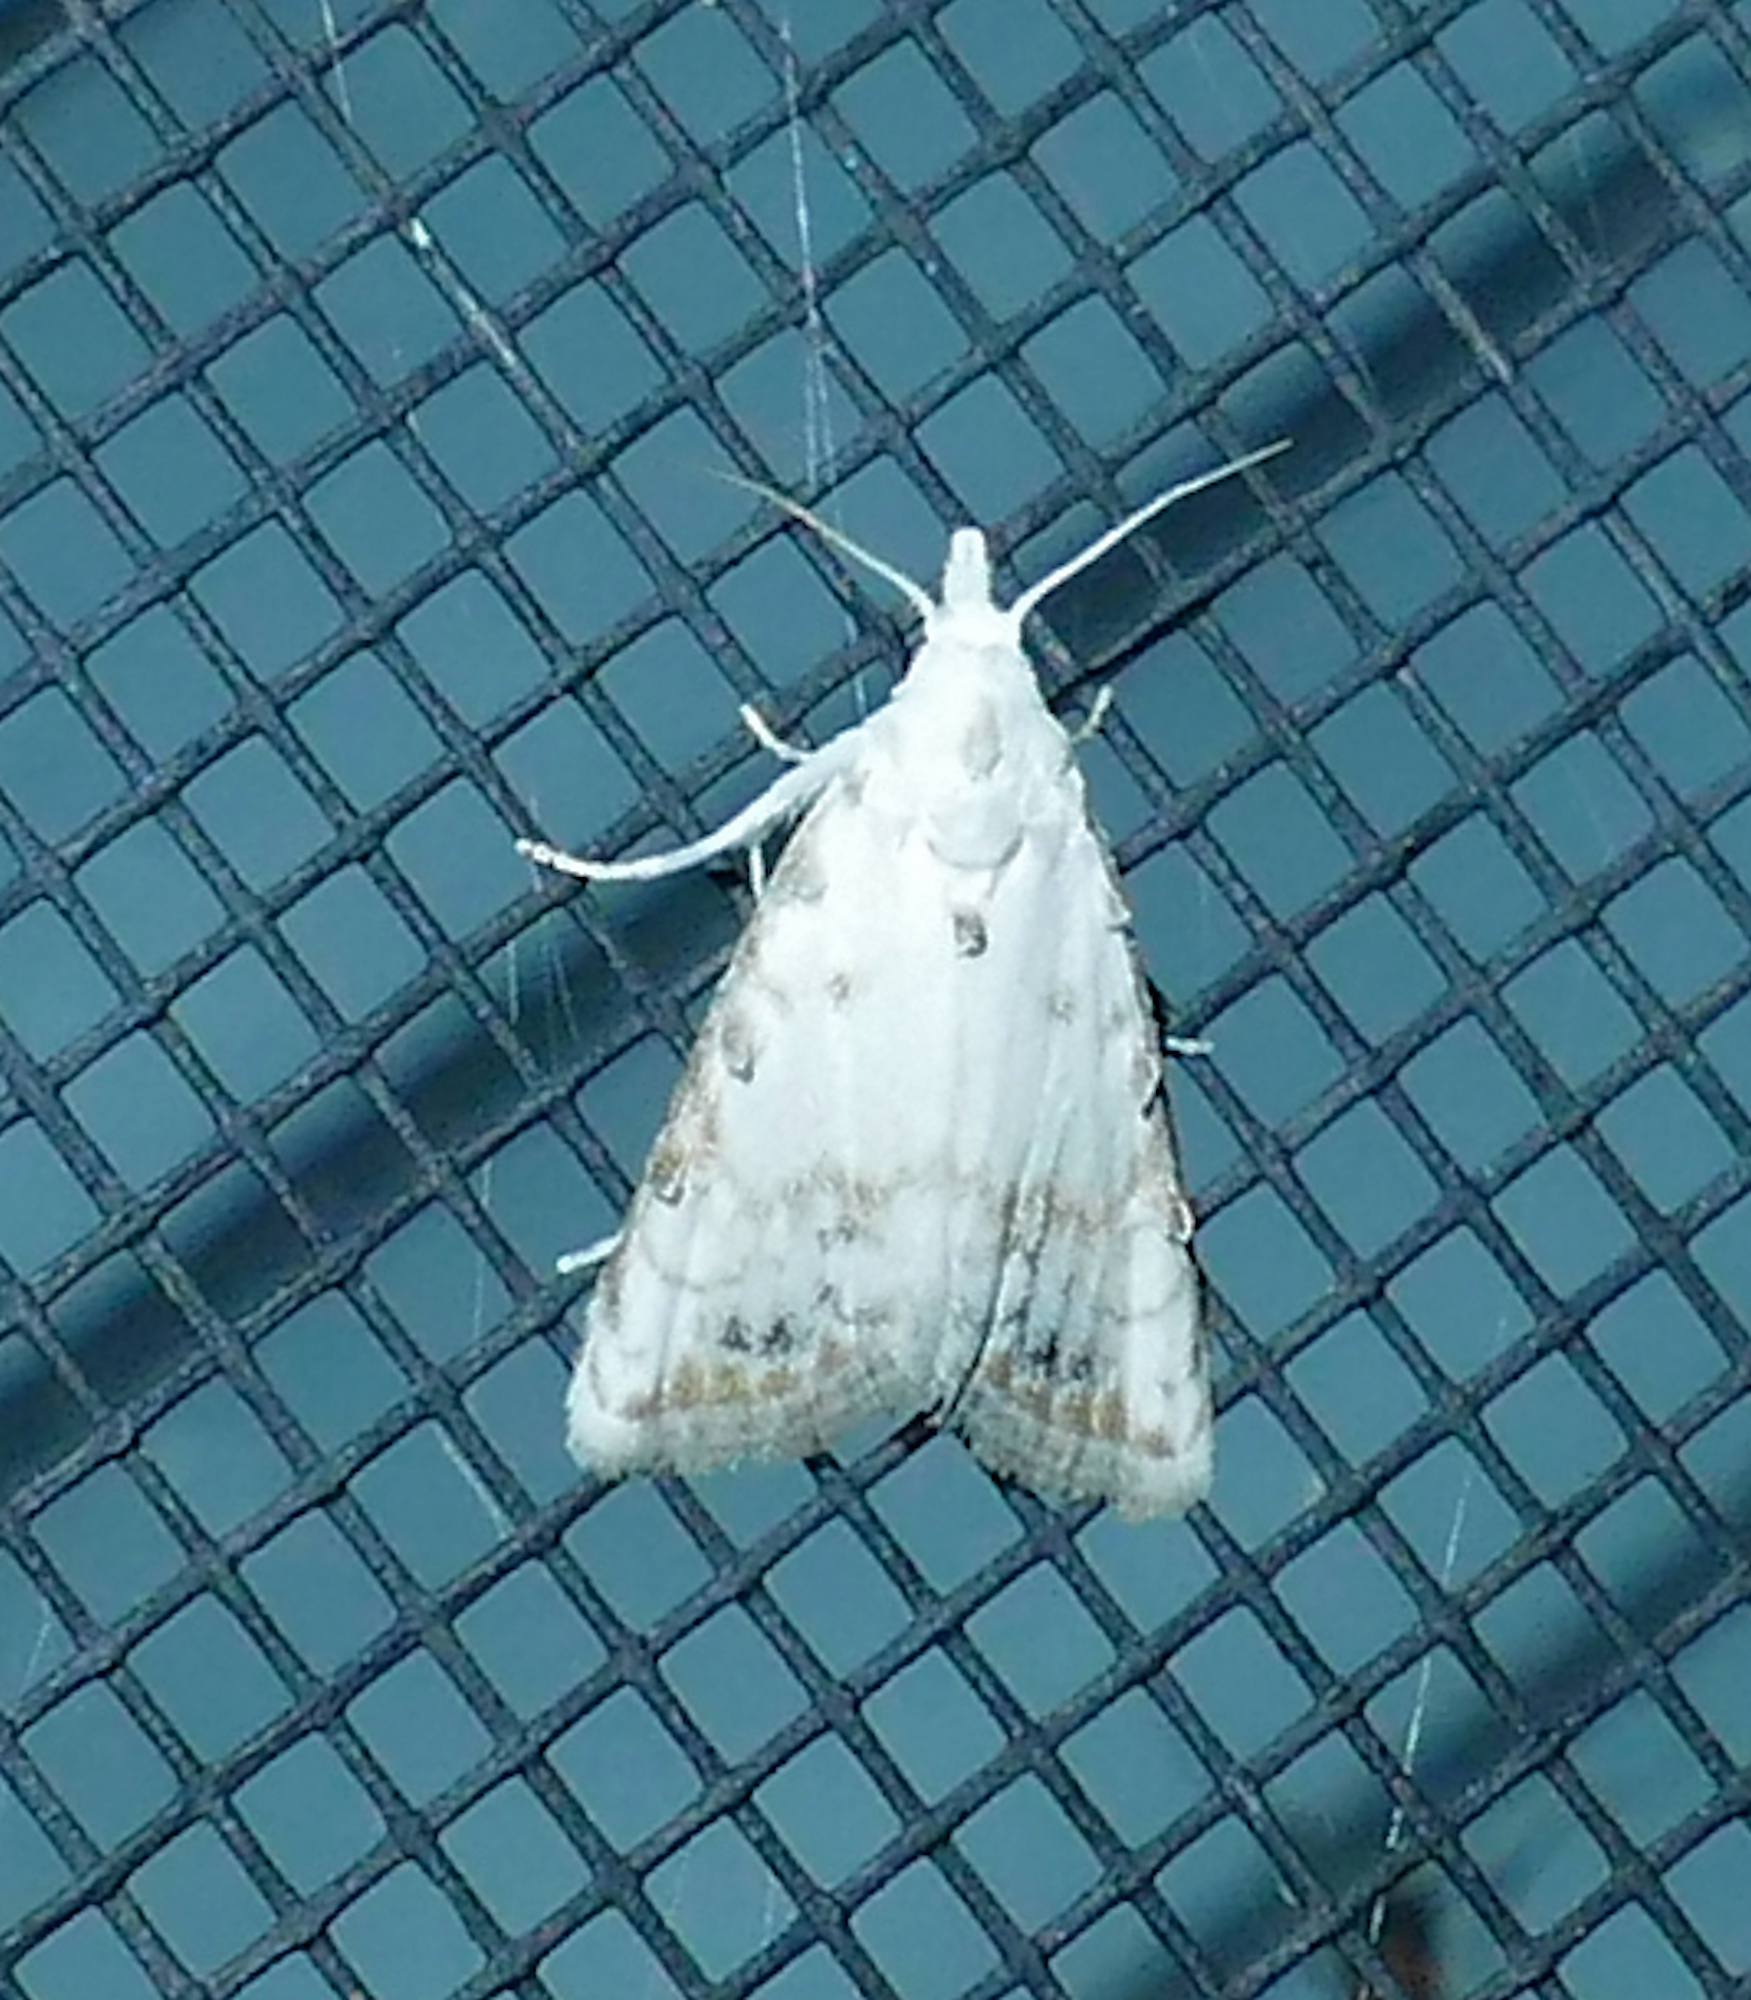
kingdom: Animalia
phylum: Arthropoda
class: Insecta
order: Lepidoptera
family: Nolidae
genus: Nola
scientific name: Nola cereella
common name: Sorghum webworm moth
